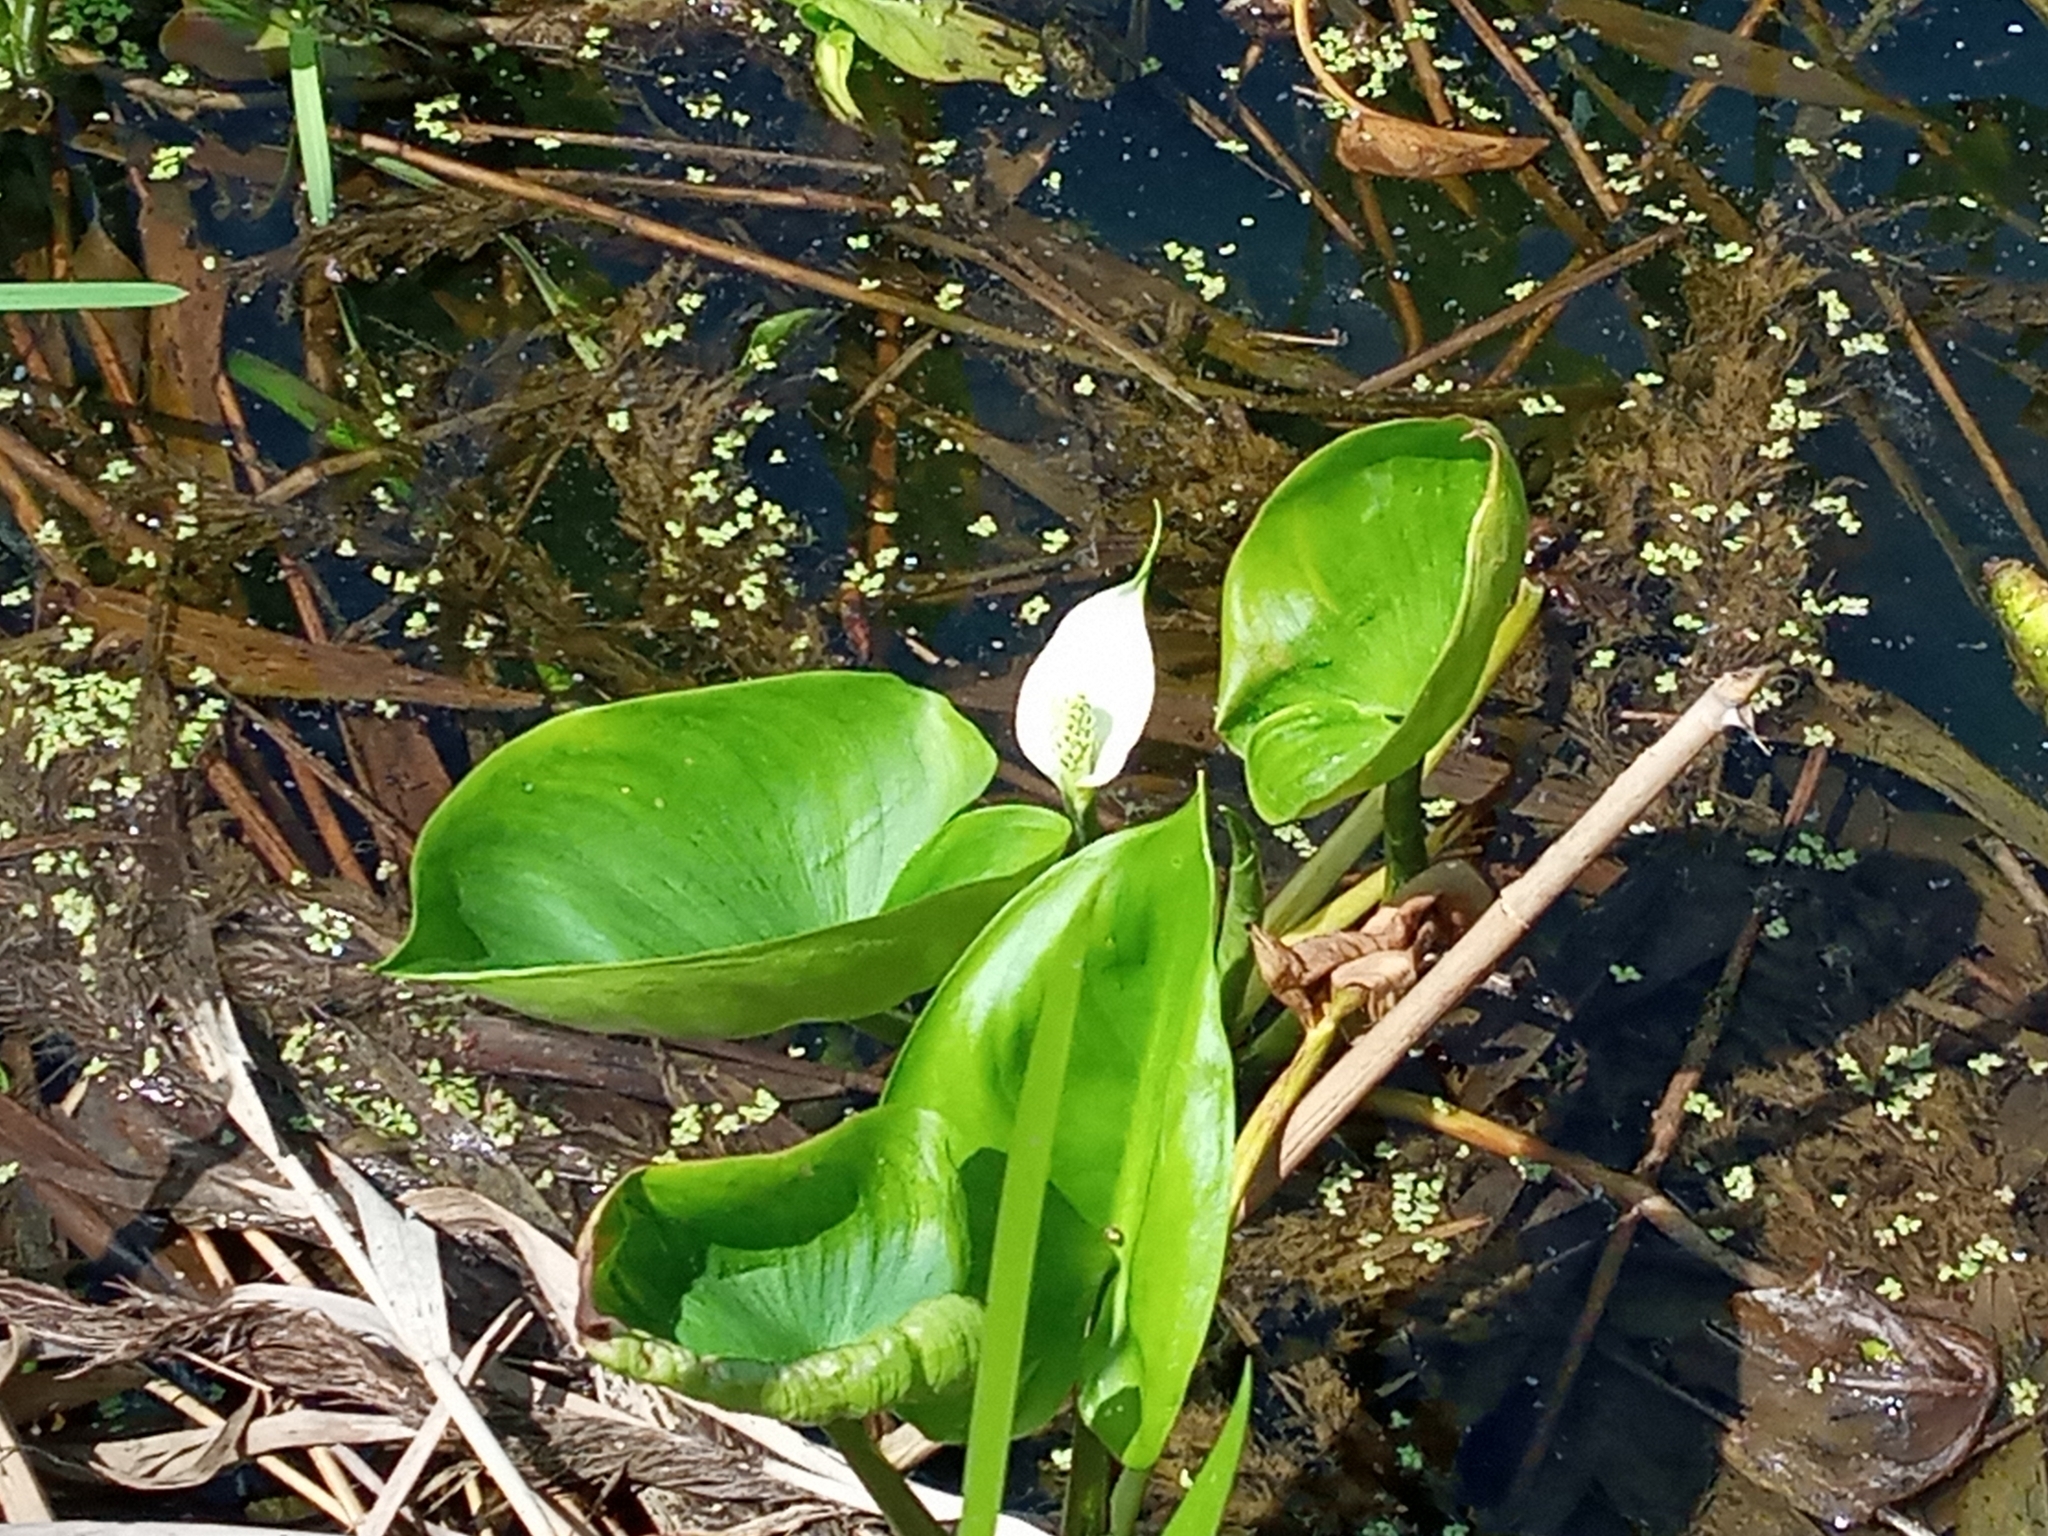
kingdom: Plantae
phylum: Tracheophyta
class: Liliopsida
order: Alismatales
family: Araceae
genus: Calla
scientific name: Calla palustris
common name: Bog arum
